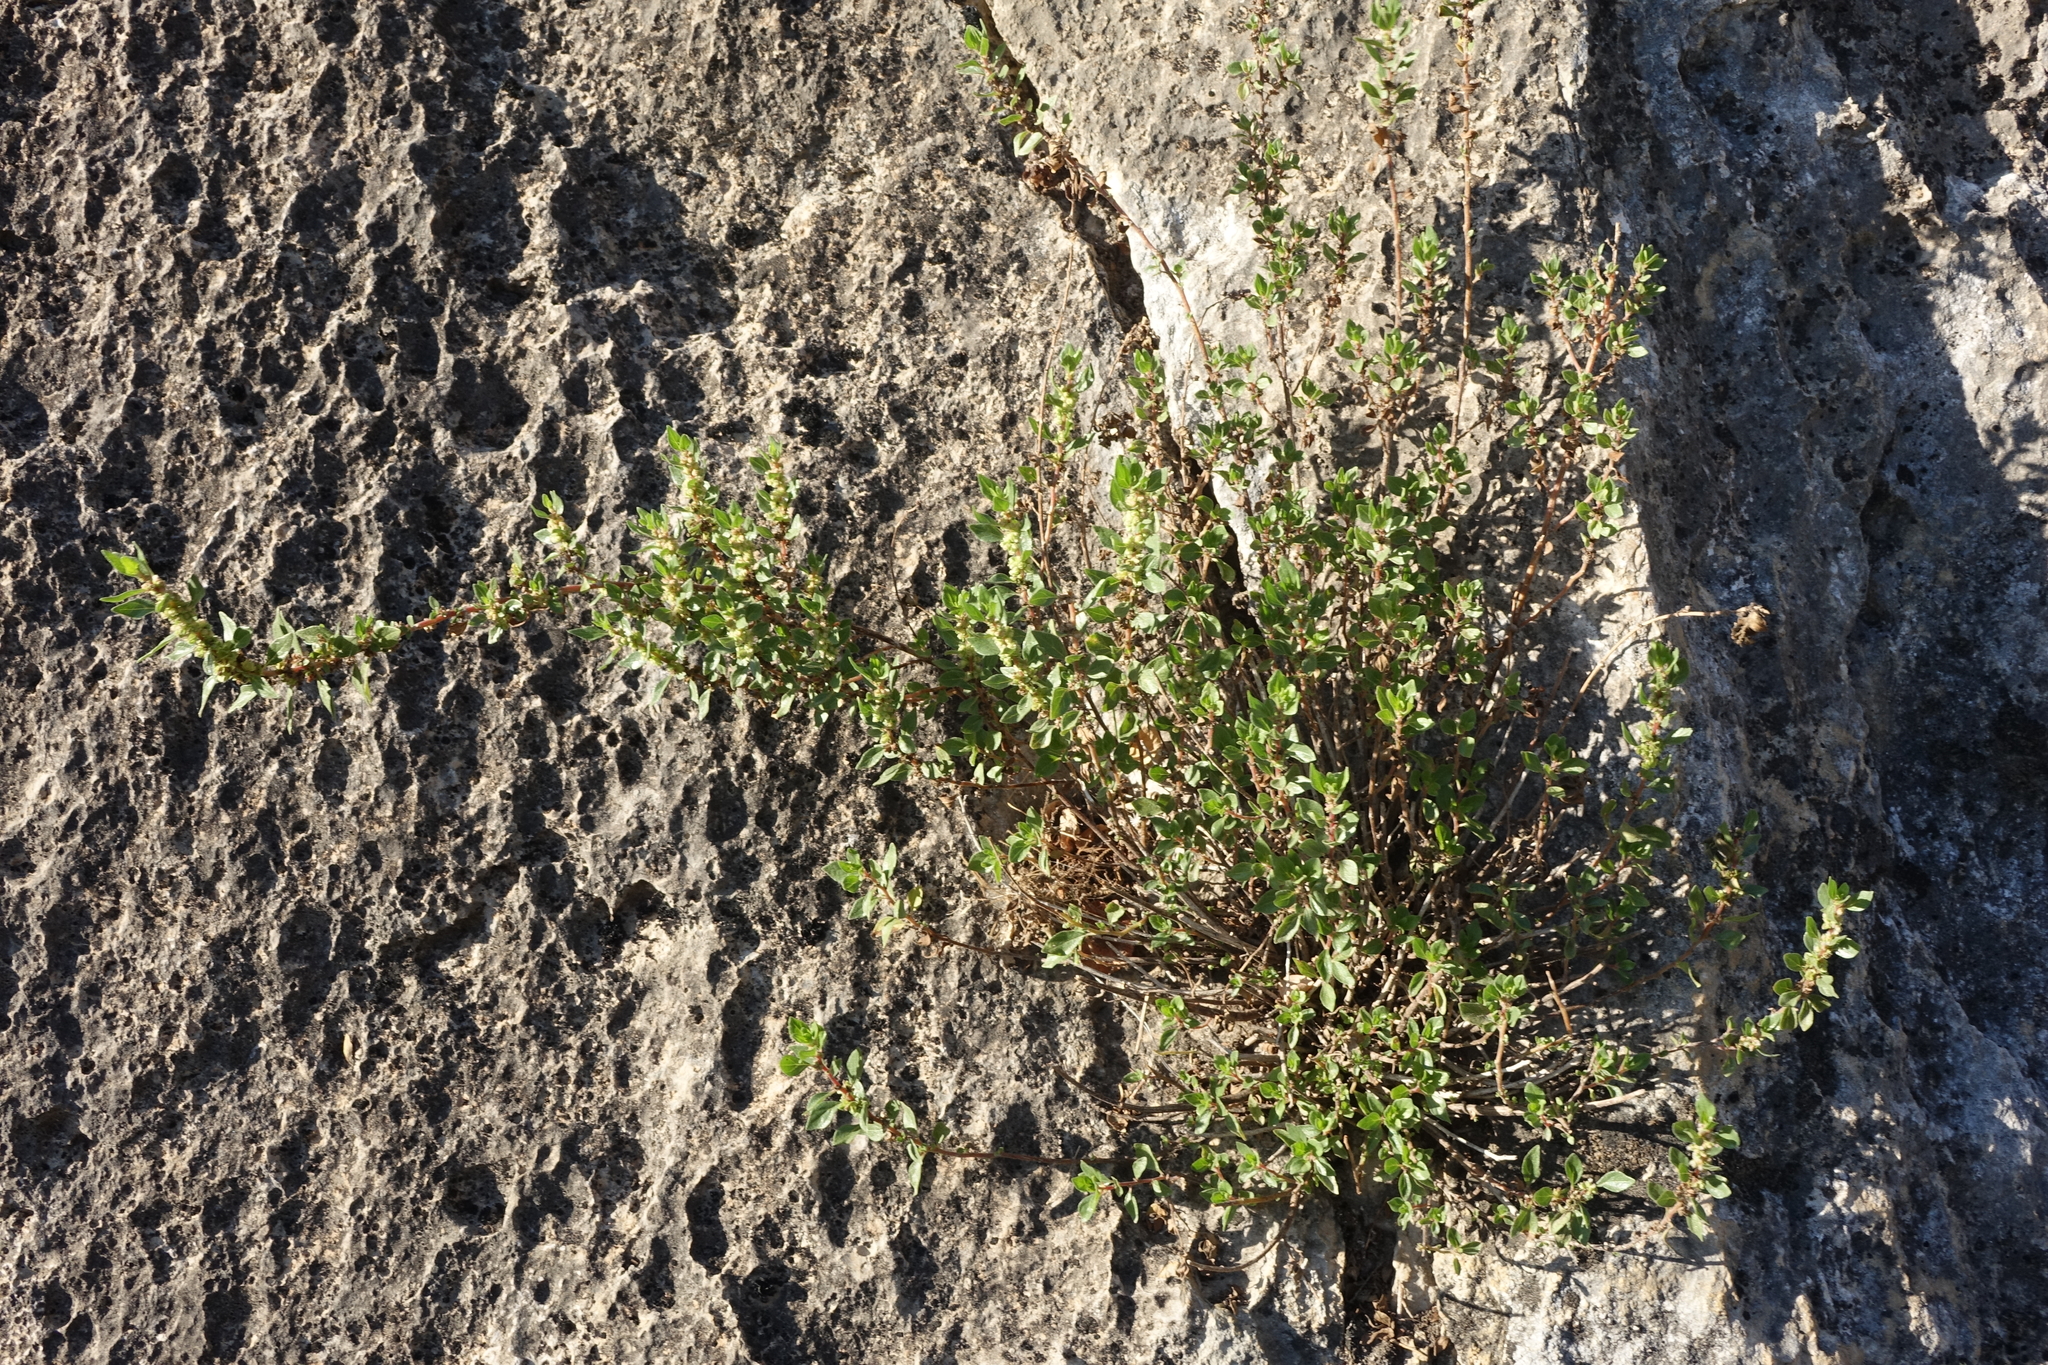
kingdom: Plantae
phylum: Tracheophyta
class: Magnoliopsida
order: Rosales
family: Urticaceae
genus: Parietaria
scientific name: Parietaria judaica
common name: Pellitory-of-the-wall
